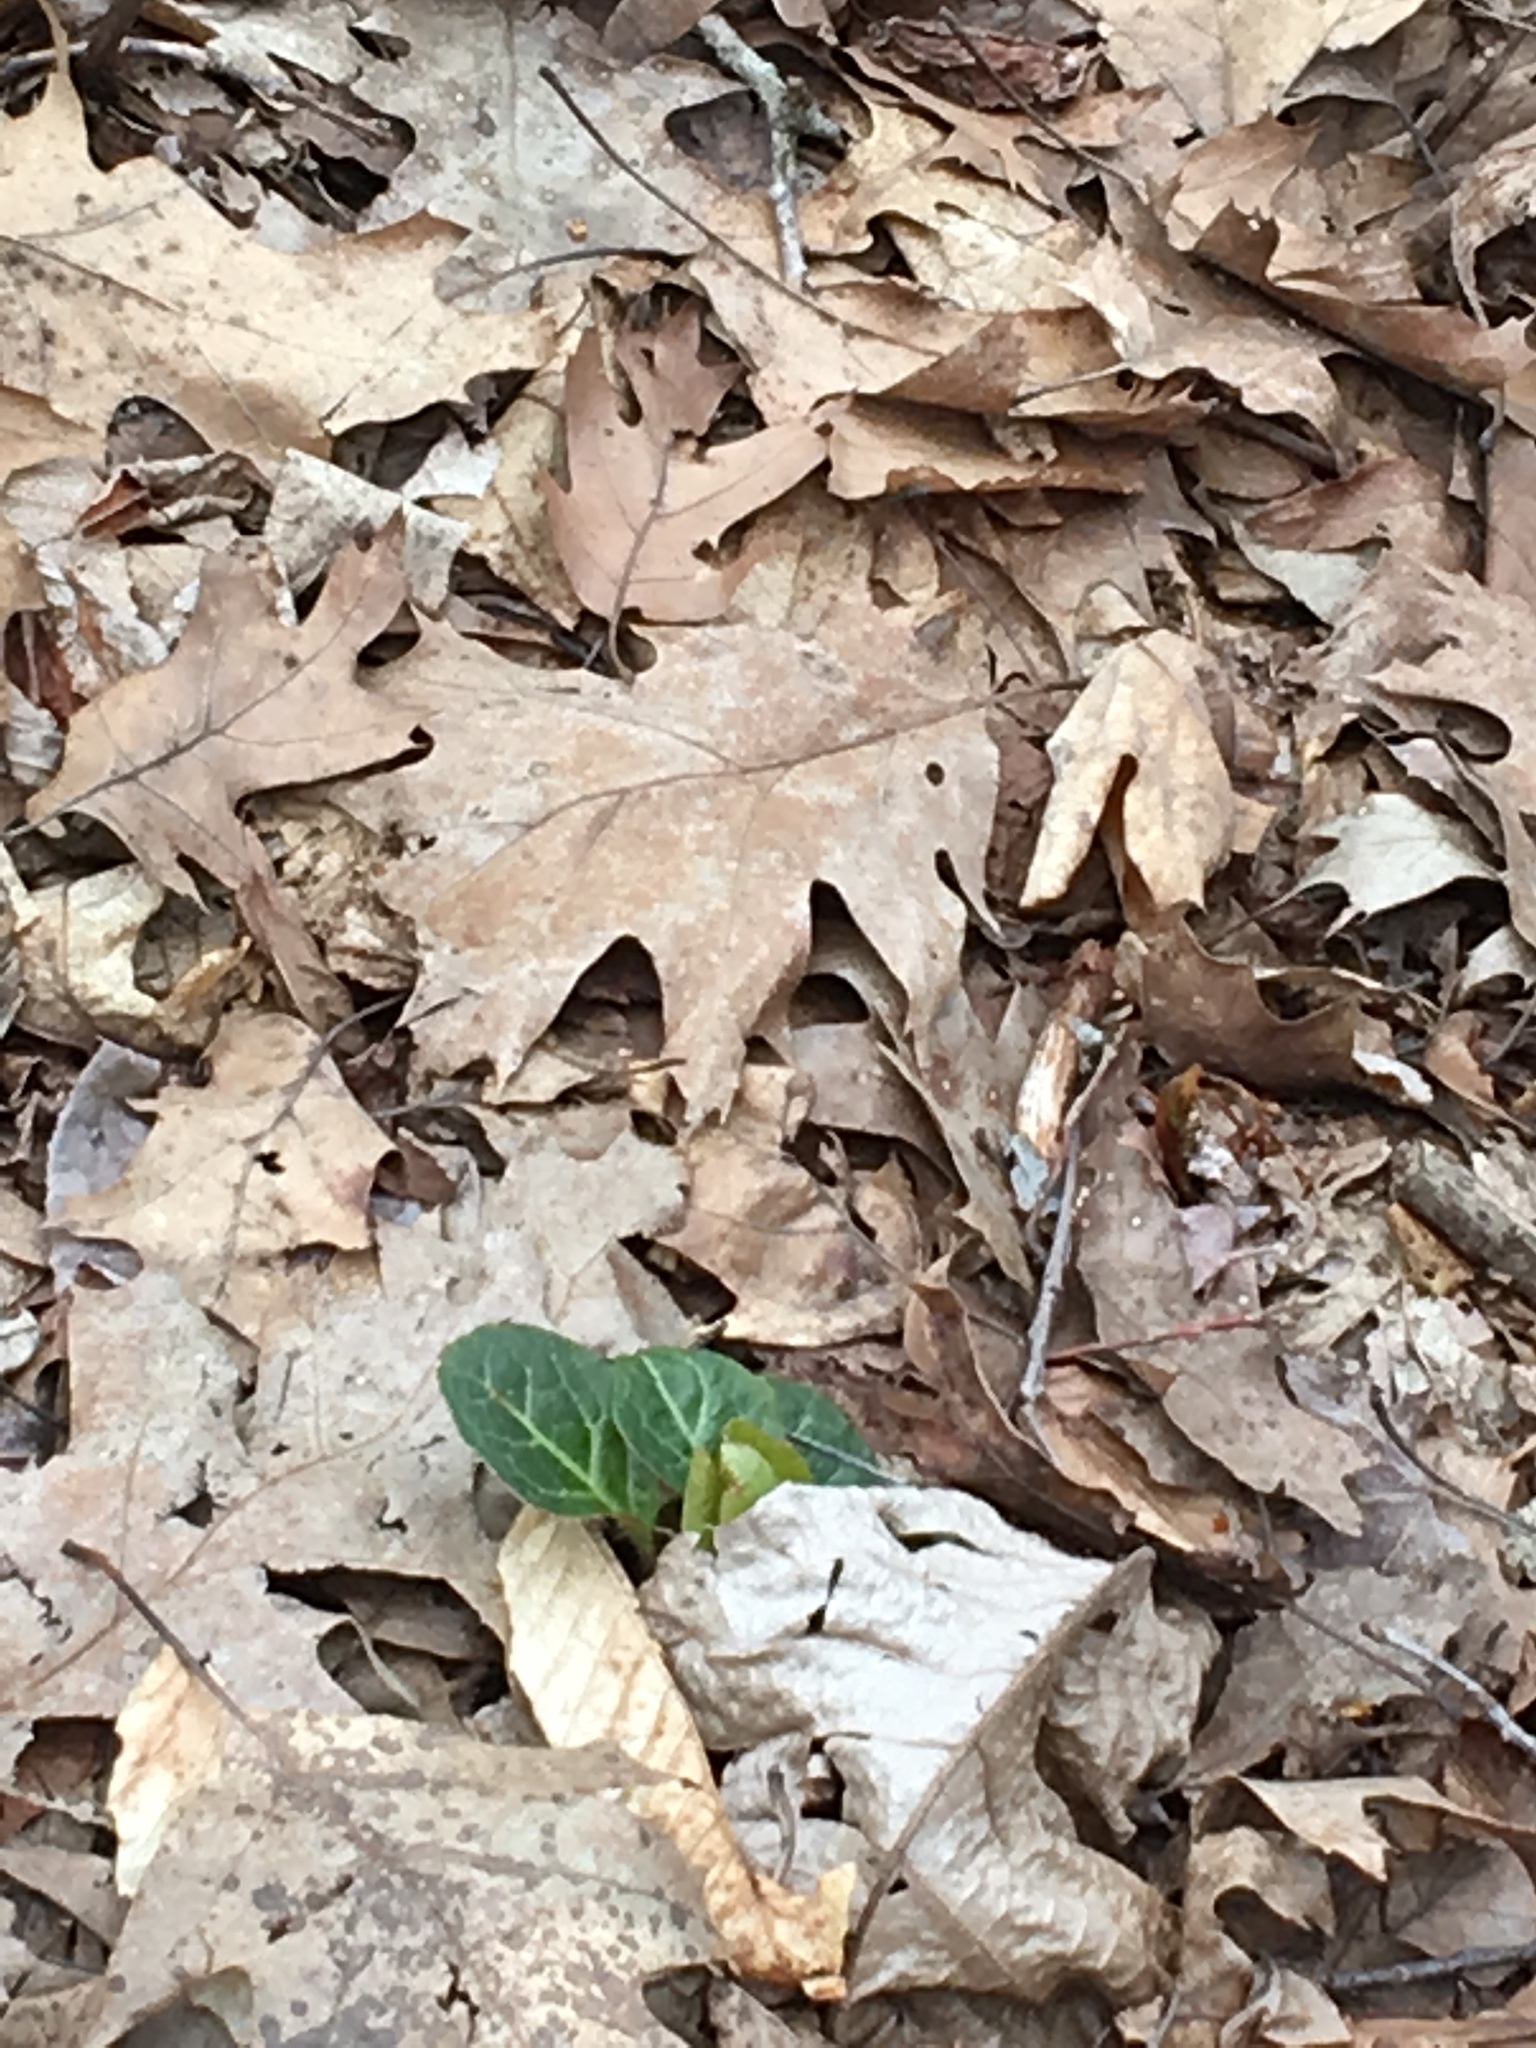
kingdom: Plantae
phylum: Tracheophyta
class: Magnoliopsida
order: Ericales
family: Ericaceae
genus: Pyrola
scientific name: Pyrola americana
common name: American wintergreen
